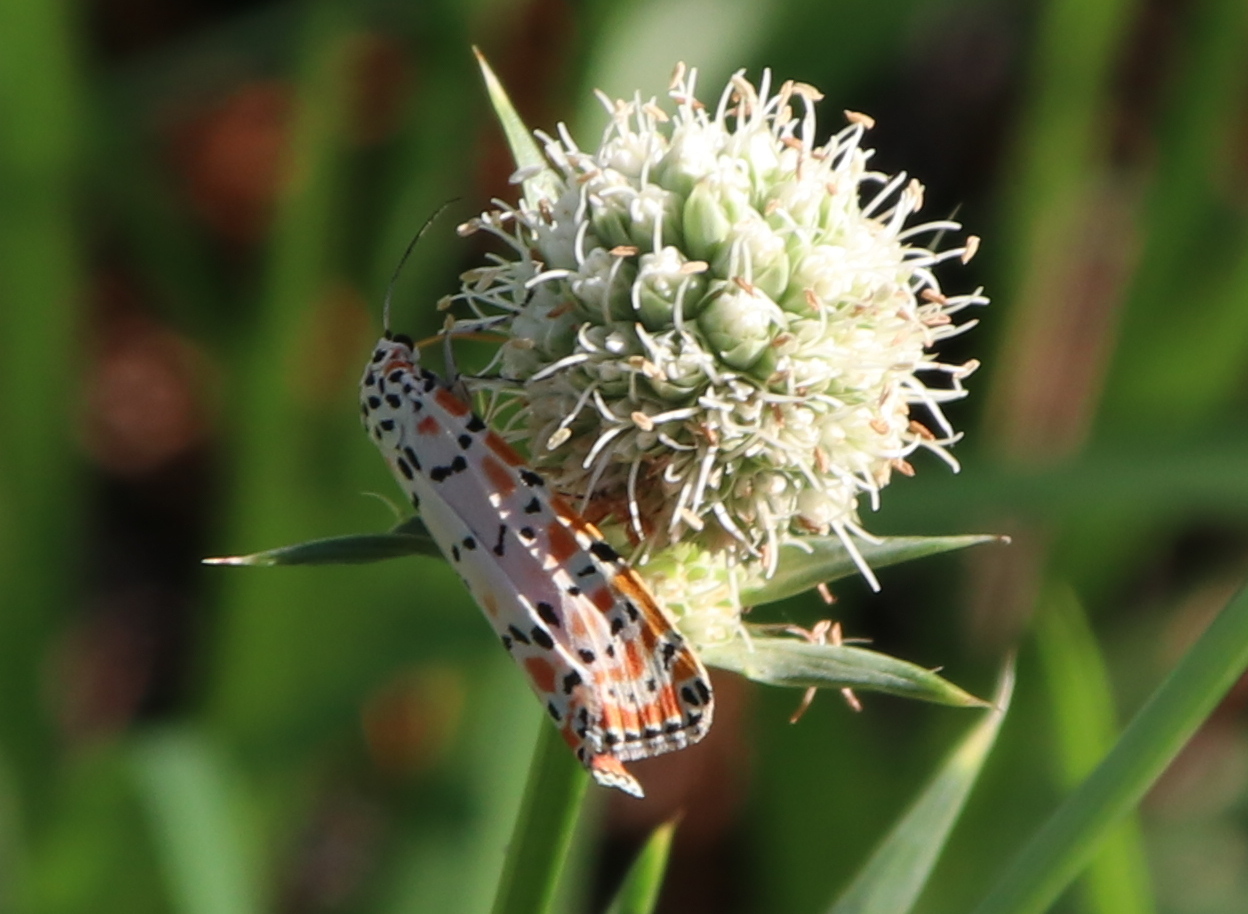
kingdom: Animalia
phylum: Arthropoda
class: Insecta
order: Lepidoptera
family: Erebidae
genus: Utetheisa
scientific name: Utetheisa ornatrix
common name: Beautiful utetheisa
